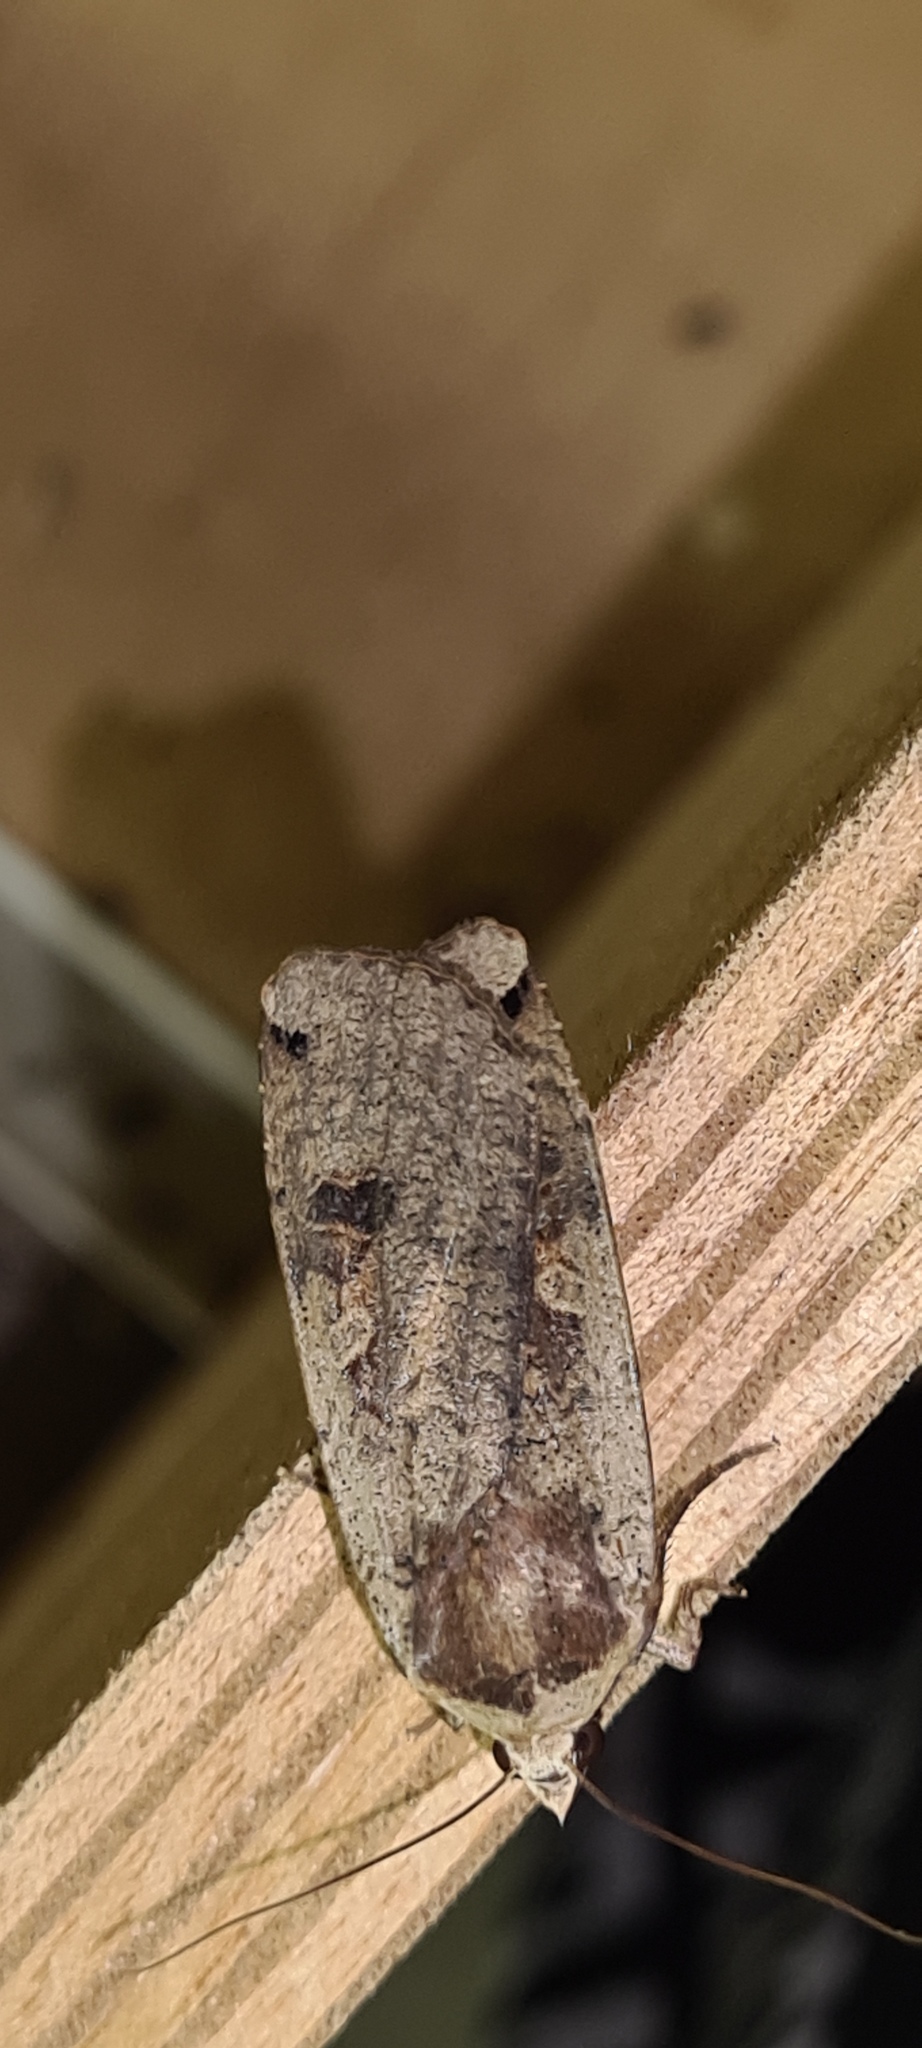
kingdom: Animalia
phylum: Arthropoda
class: Insecta
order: Lepidoptera
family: Noctuidae
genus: Noctua
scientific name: Noctua pronuba
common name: Large yellow underwing
